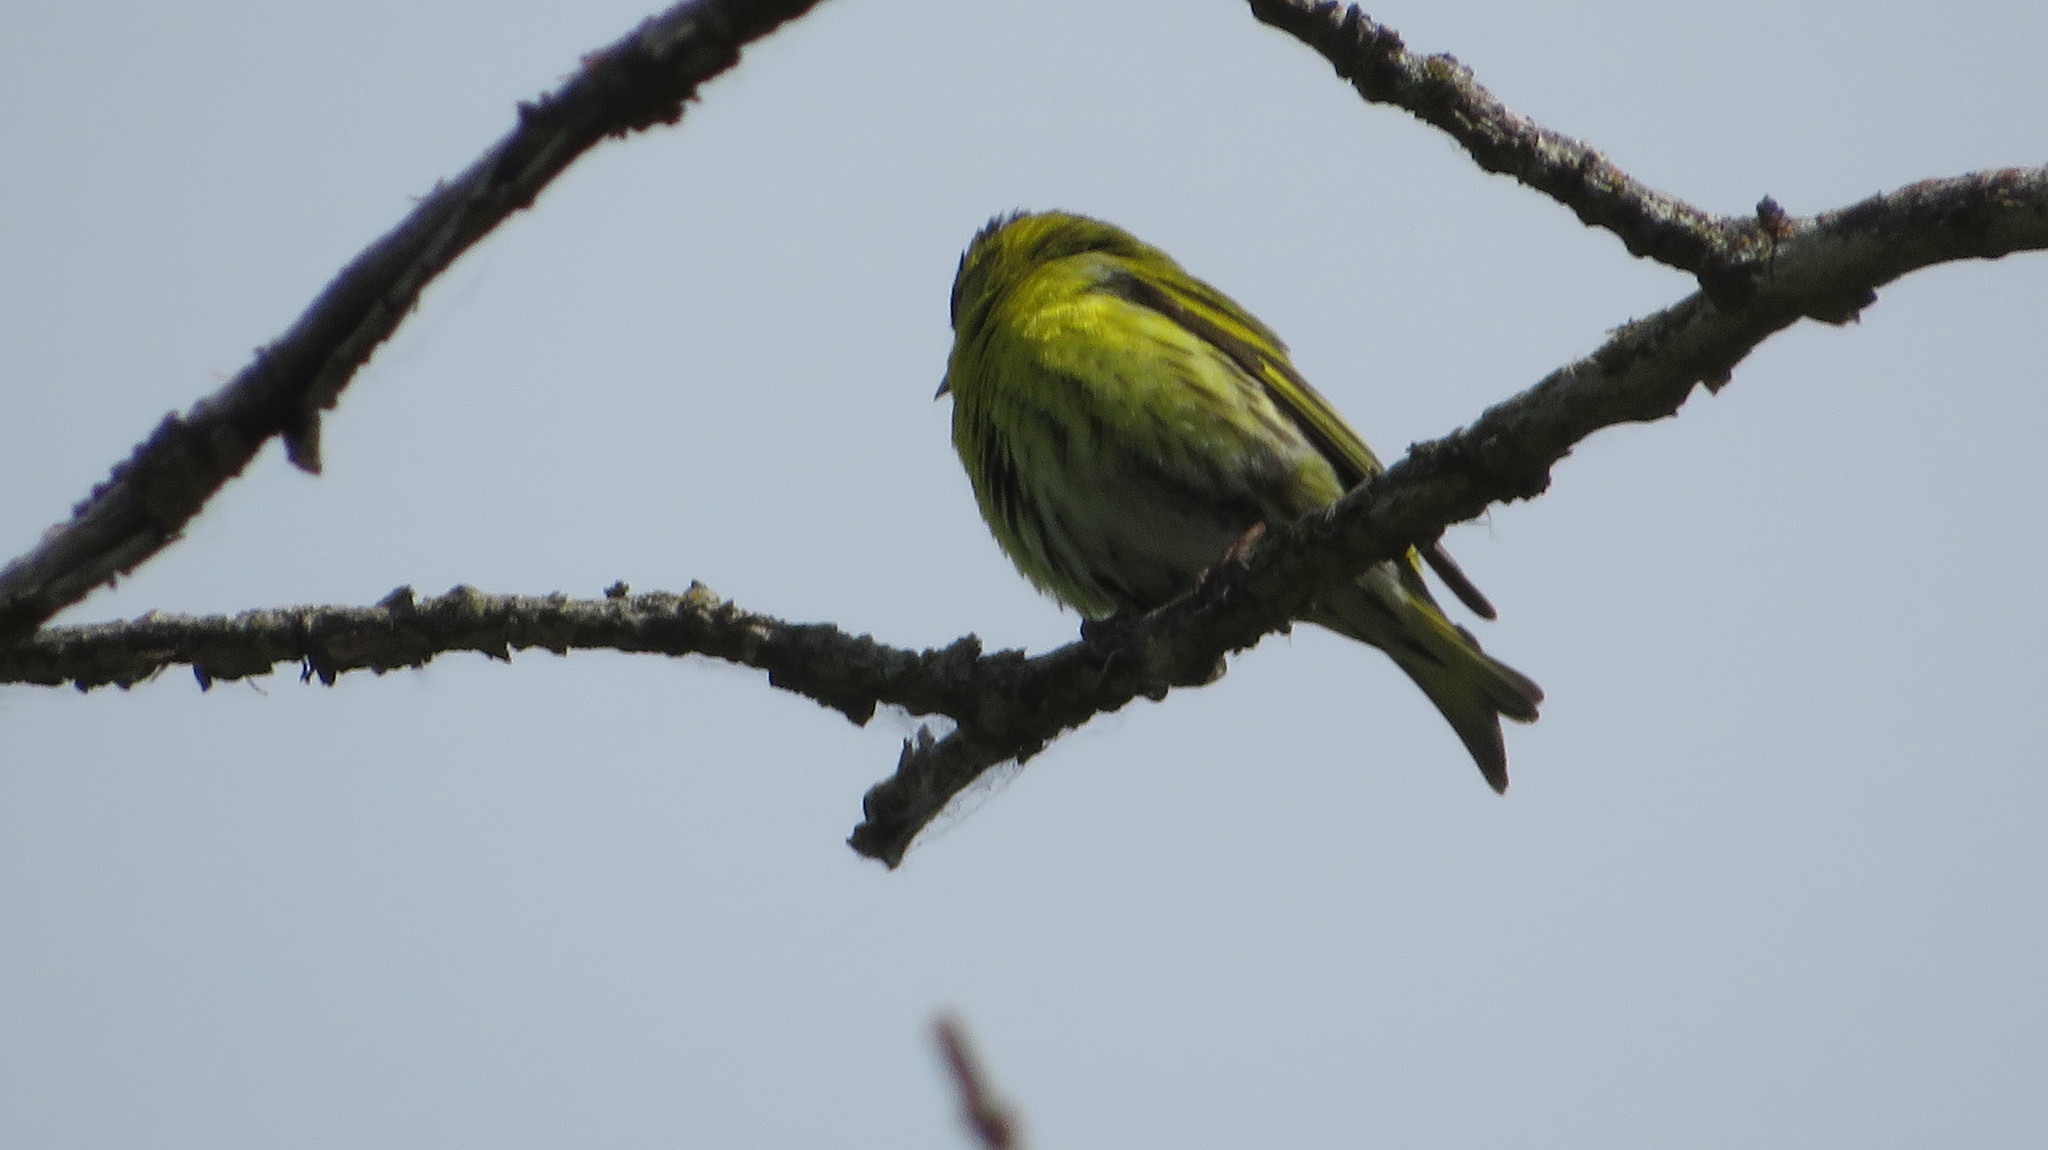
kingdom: Animalia
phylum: Chordata
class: Aves
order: Passeriformes
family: Fringillidae
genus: Spinus
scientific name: Spinus spinus
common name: Eurasian siskin
